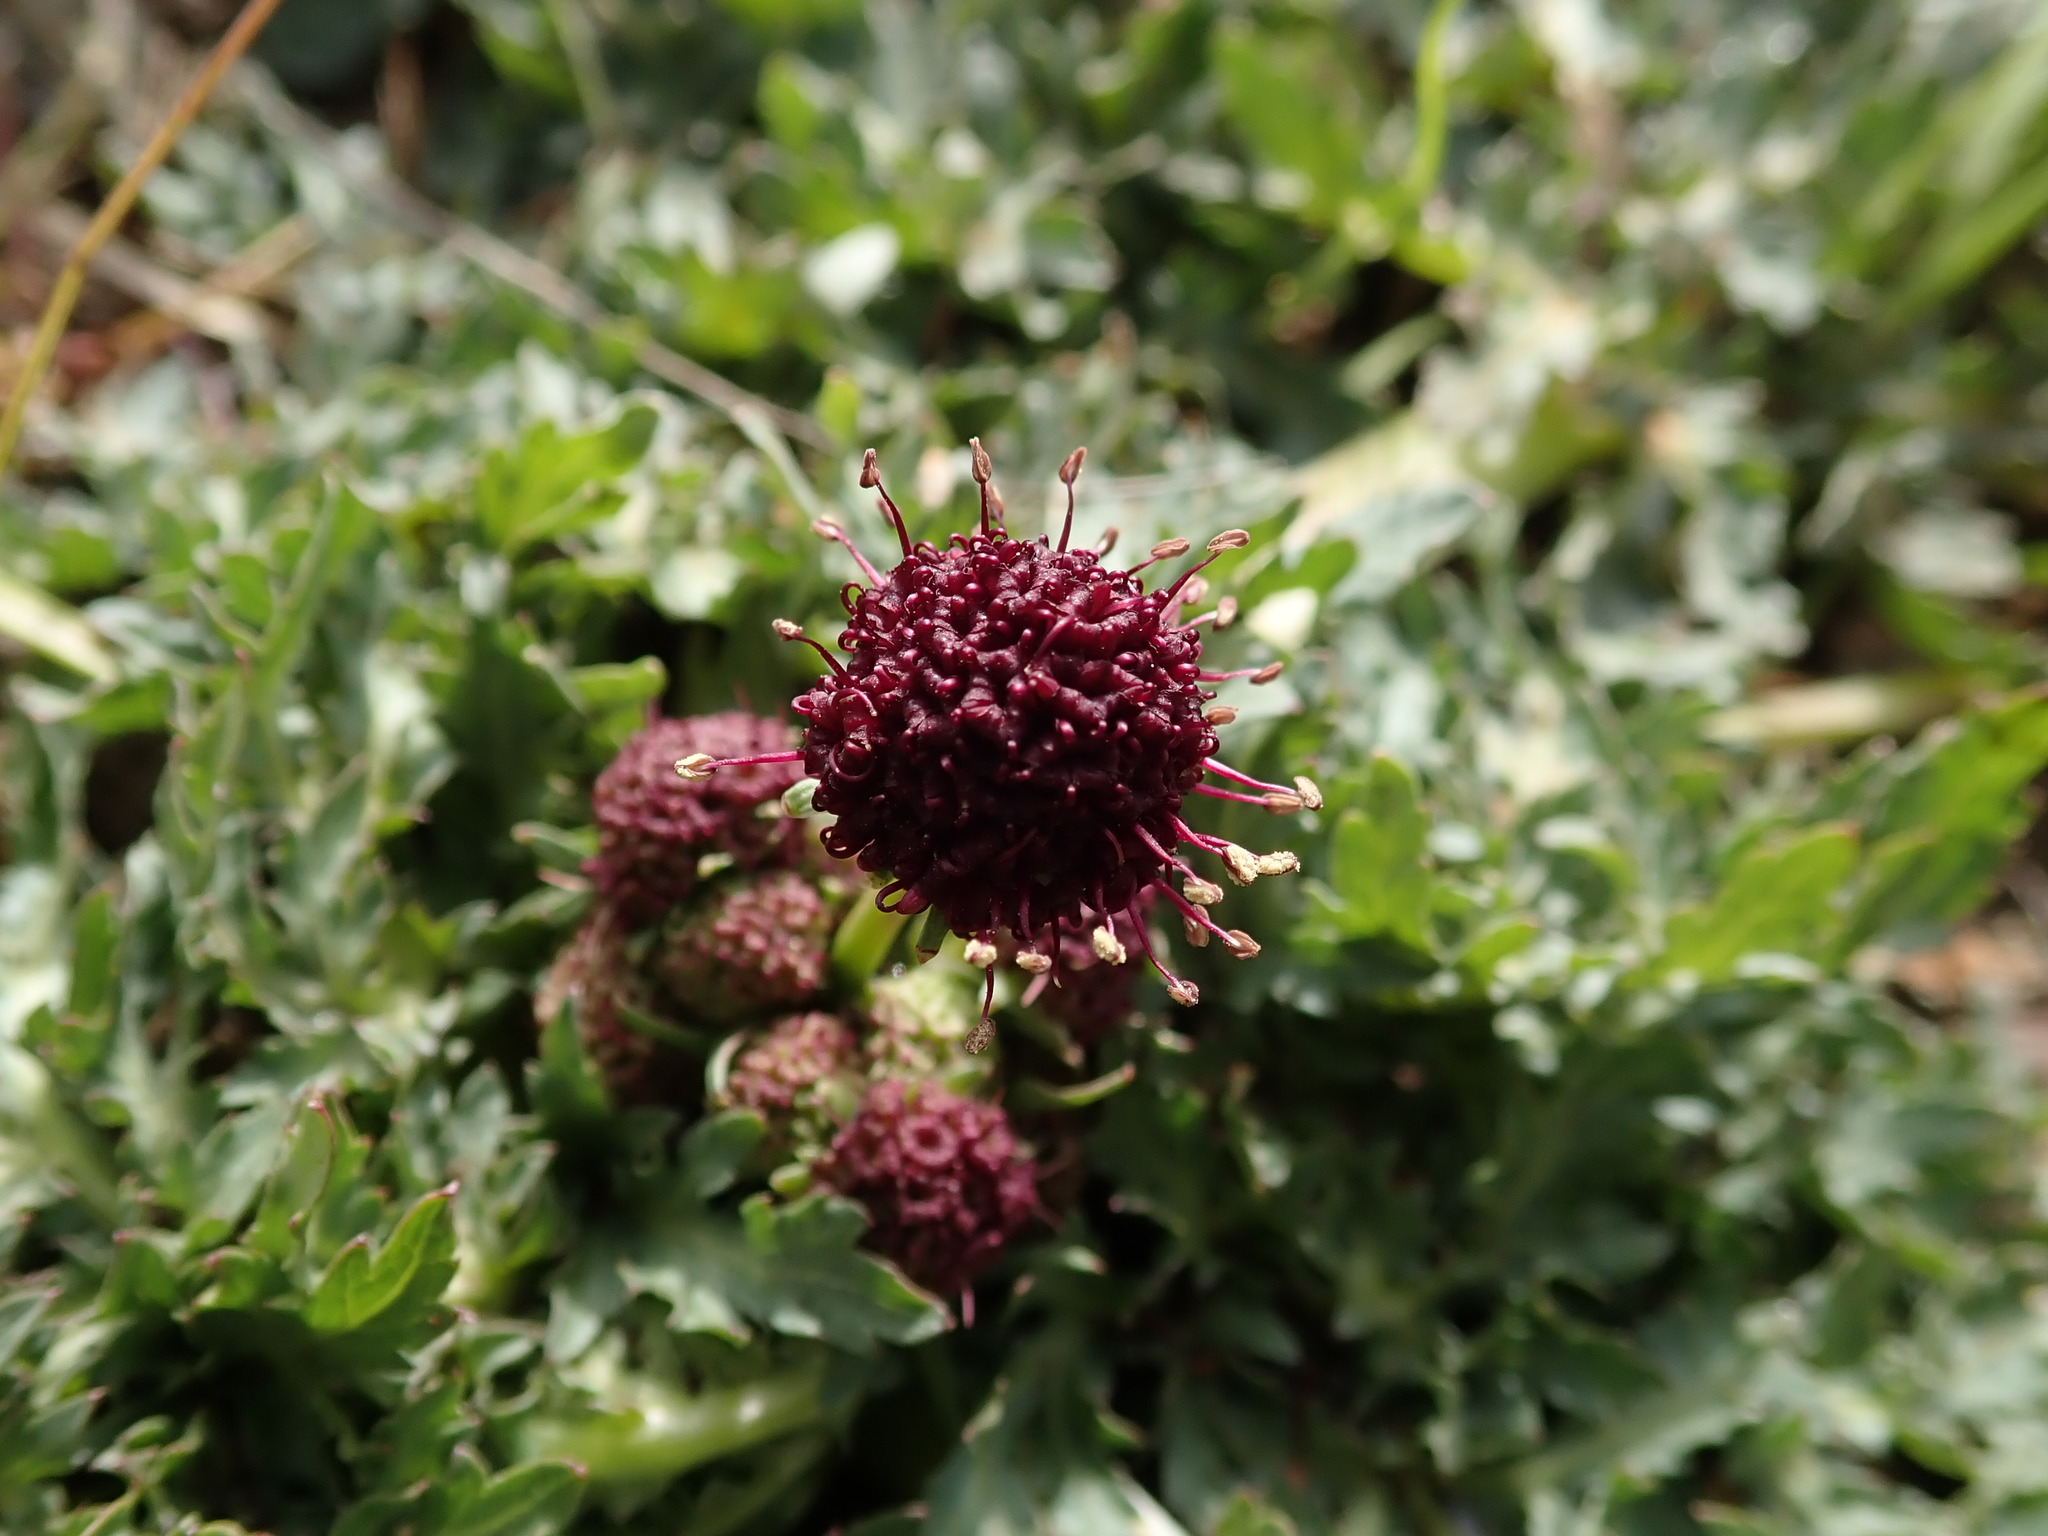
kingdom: Plantae
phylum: Tracheophyta
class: Magnoliopsida
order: Apiales
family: Apiaceae
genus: Sanicula
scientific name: Sanicula bipinnatifida
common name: Shoe-buttons
